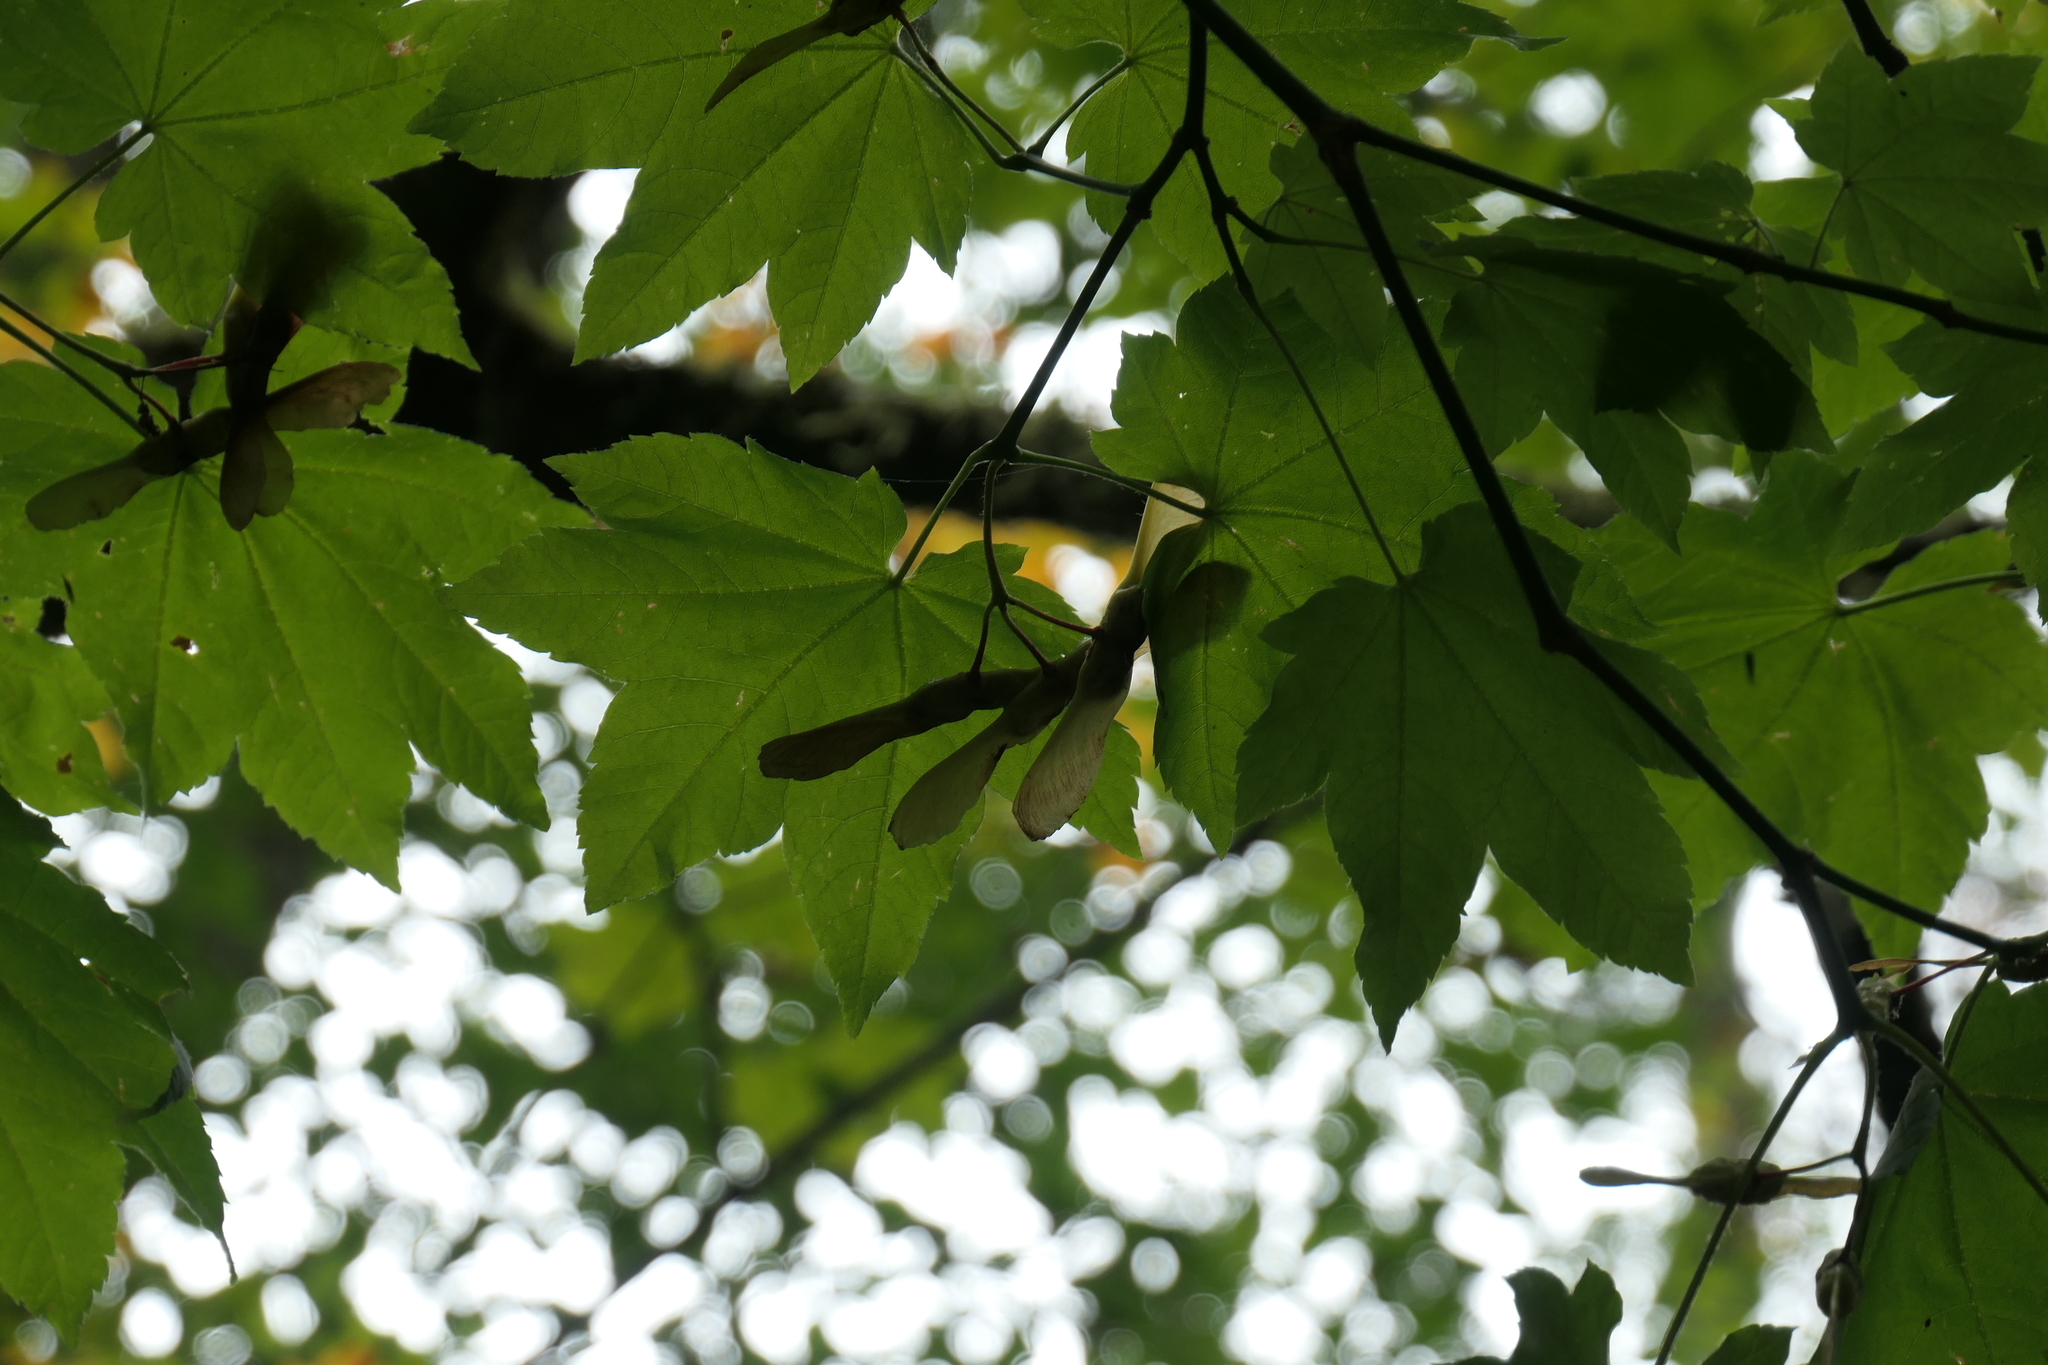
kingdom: Plantae
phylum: Tracheophyta
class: Magnoliopsida
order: Sapindales
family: Sapindaceae
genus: Acer
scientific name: Acer circinatum
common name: Vine maple
